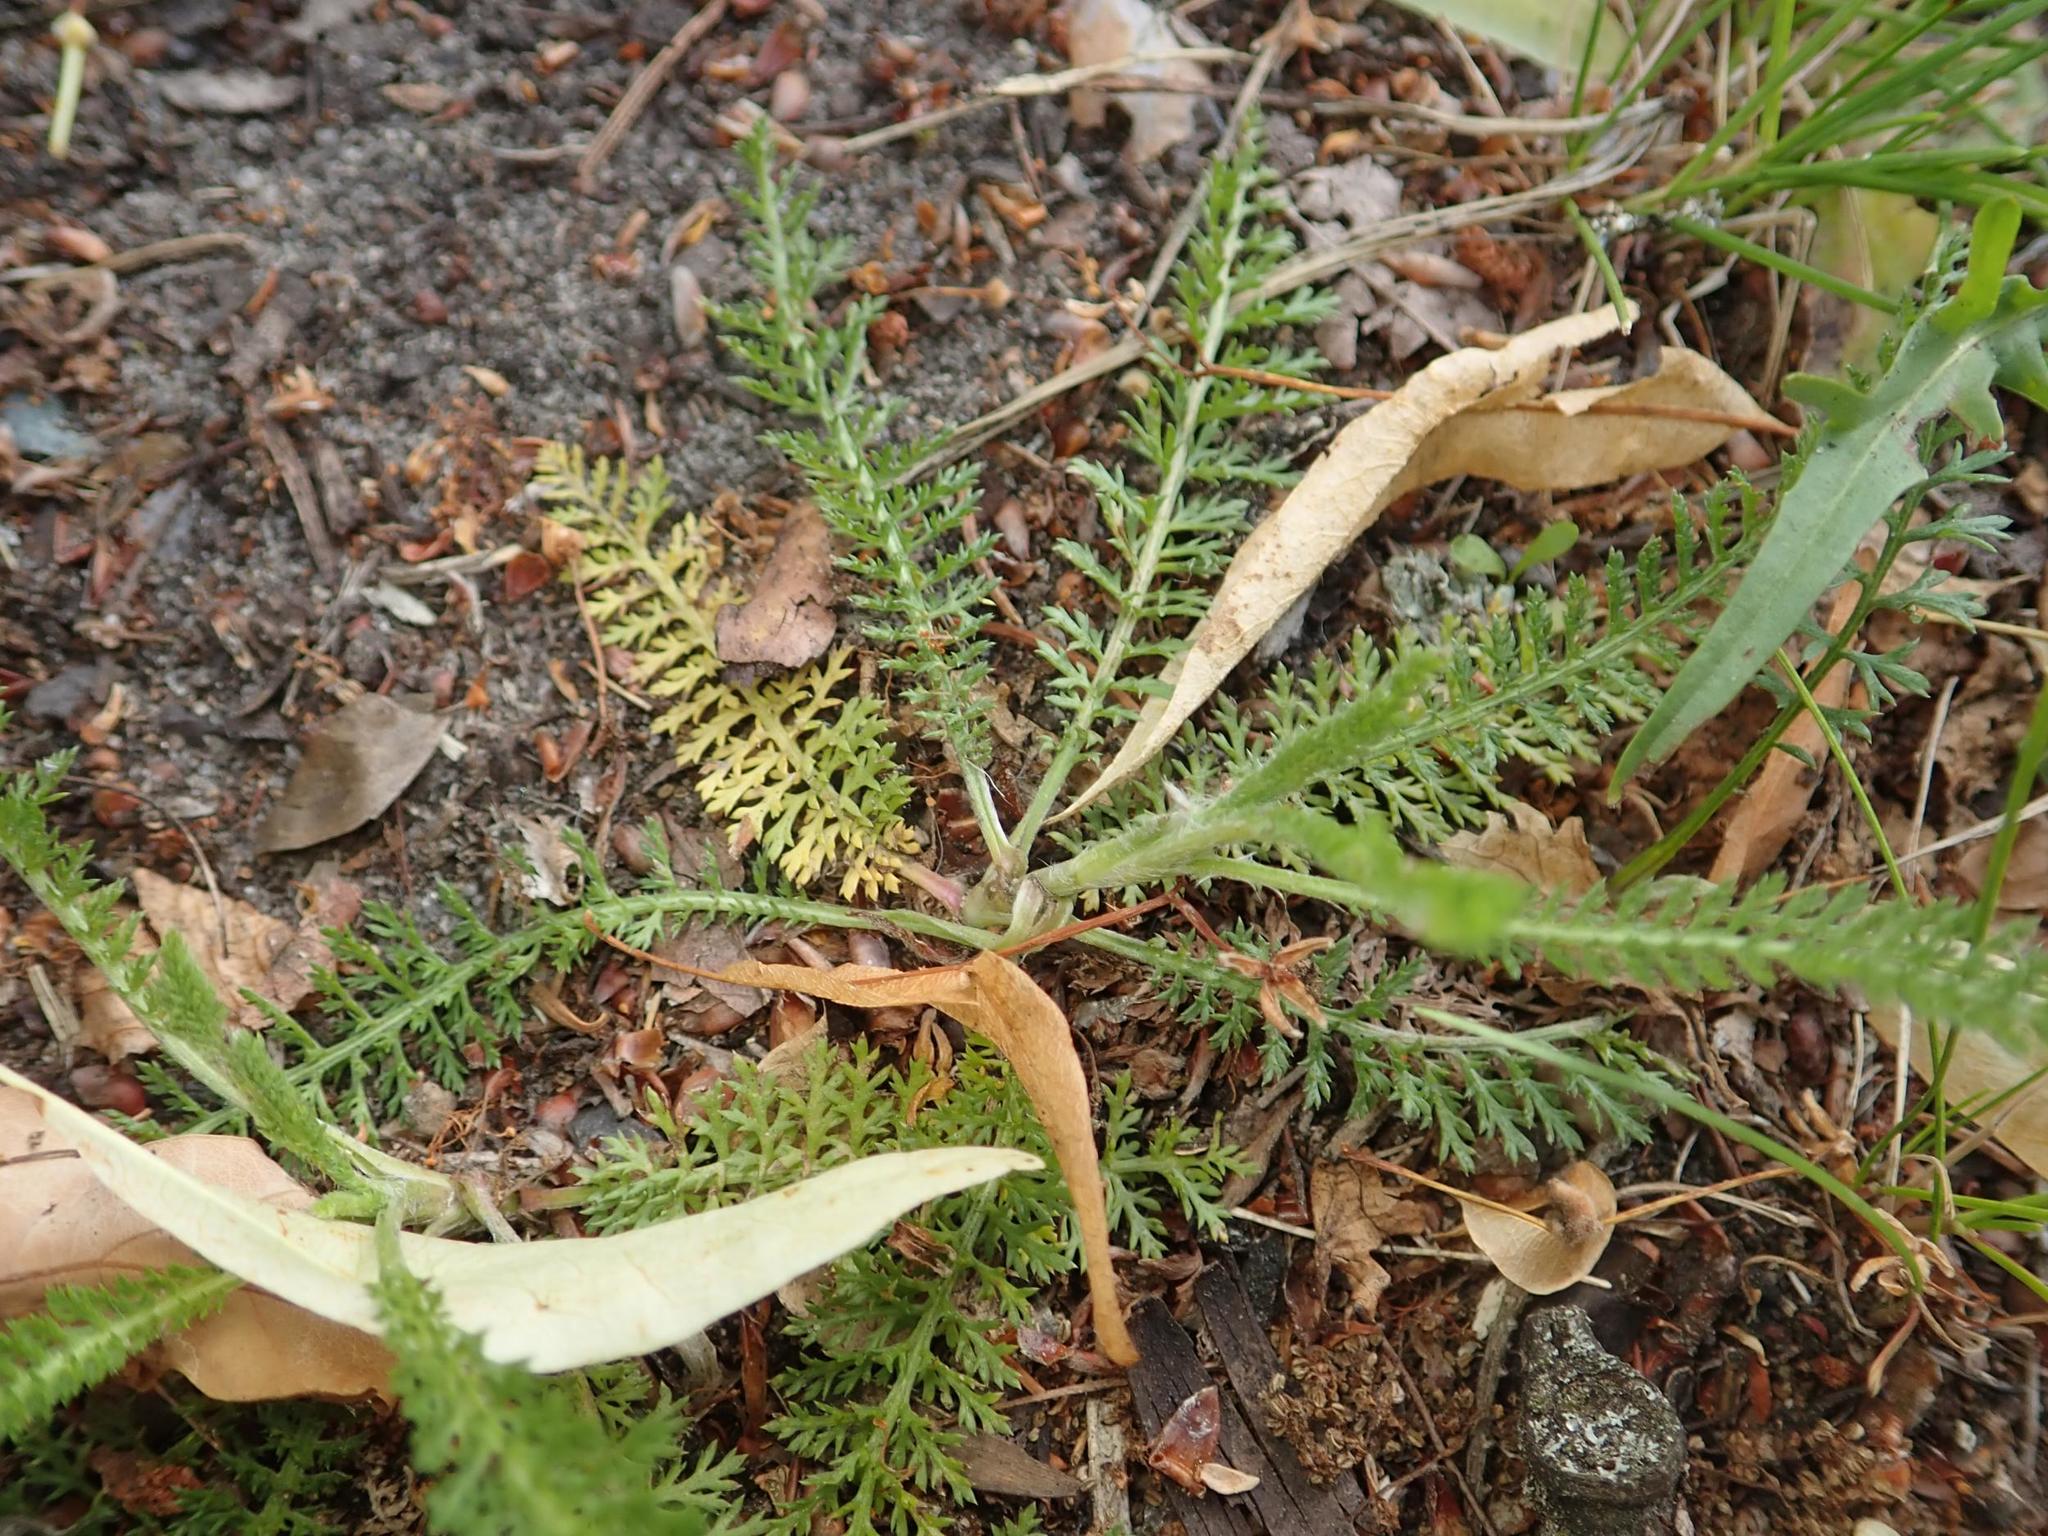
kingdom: Plantae
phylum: Tracheophyta
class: Magnoliopsida
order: Asterales
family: Asteraceae
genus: Achillea
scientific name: Achillea millefolium
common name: Yarrow
